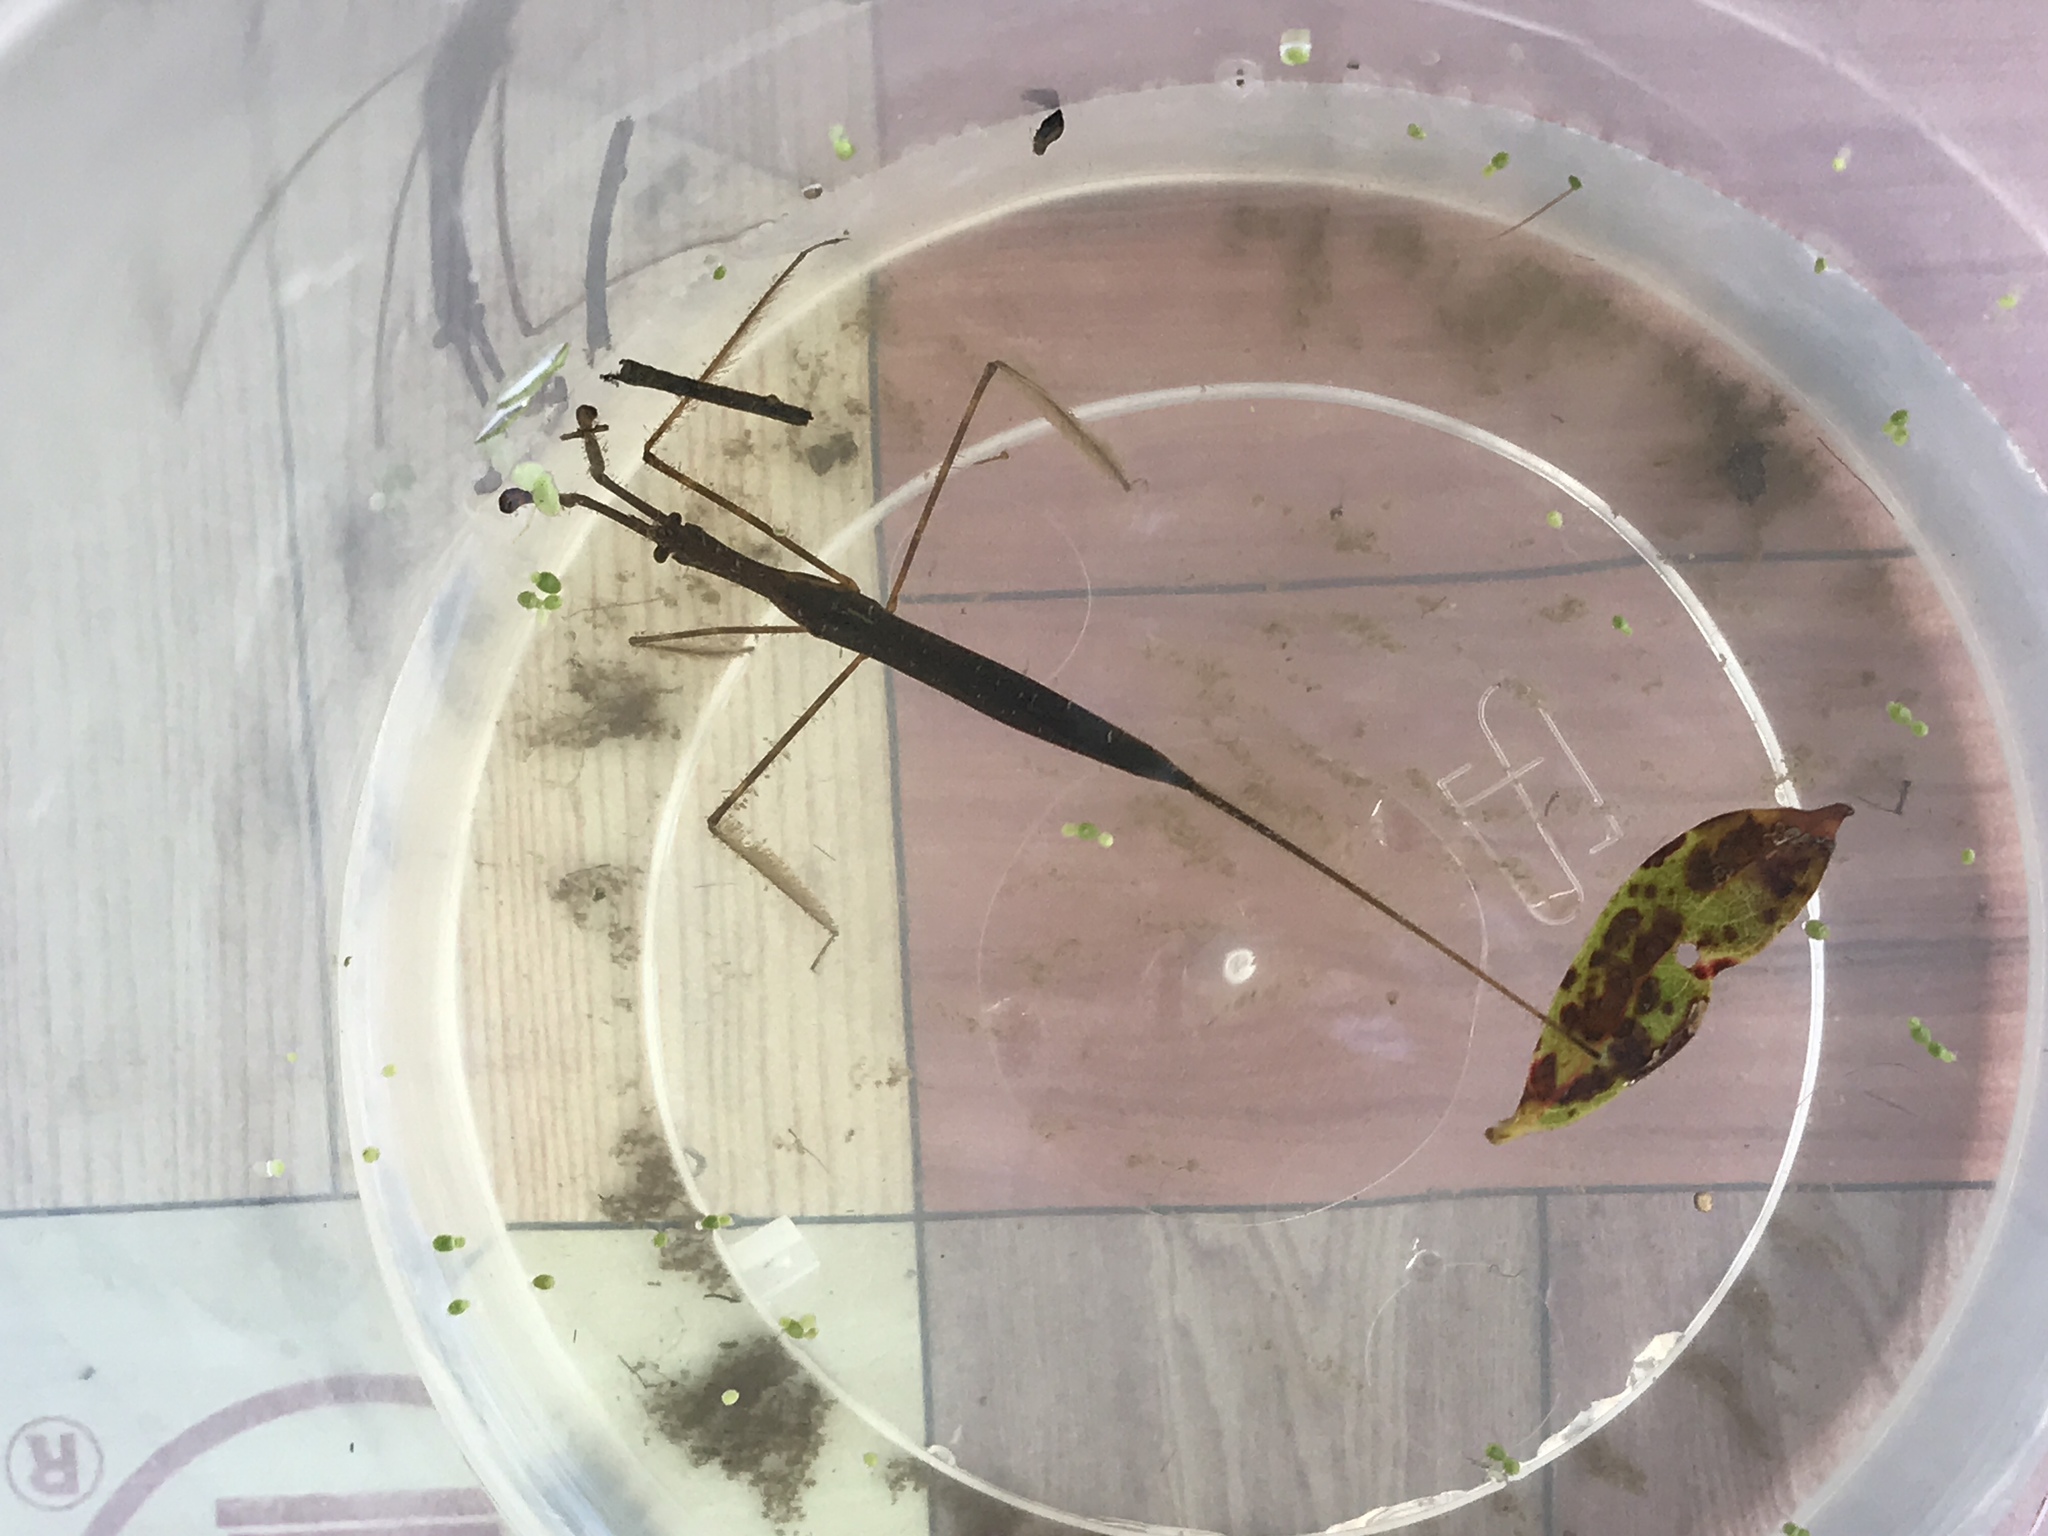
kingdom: Animalia
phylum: Arthropoda
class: Insecta
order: Hemiptera
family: Nepidae
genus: Ranatra
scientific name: Ranatra
